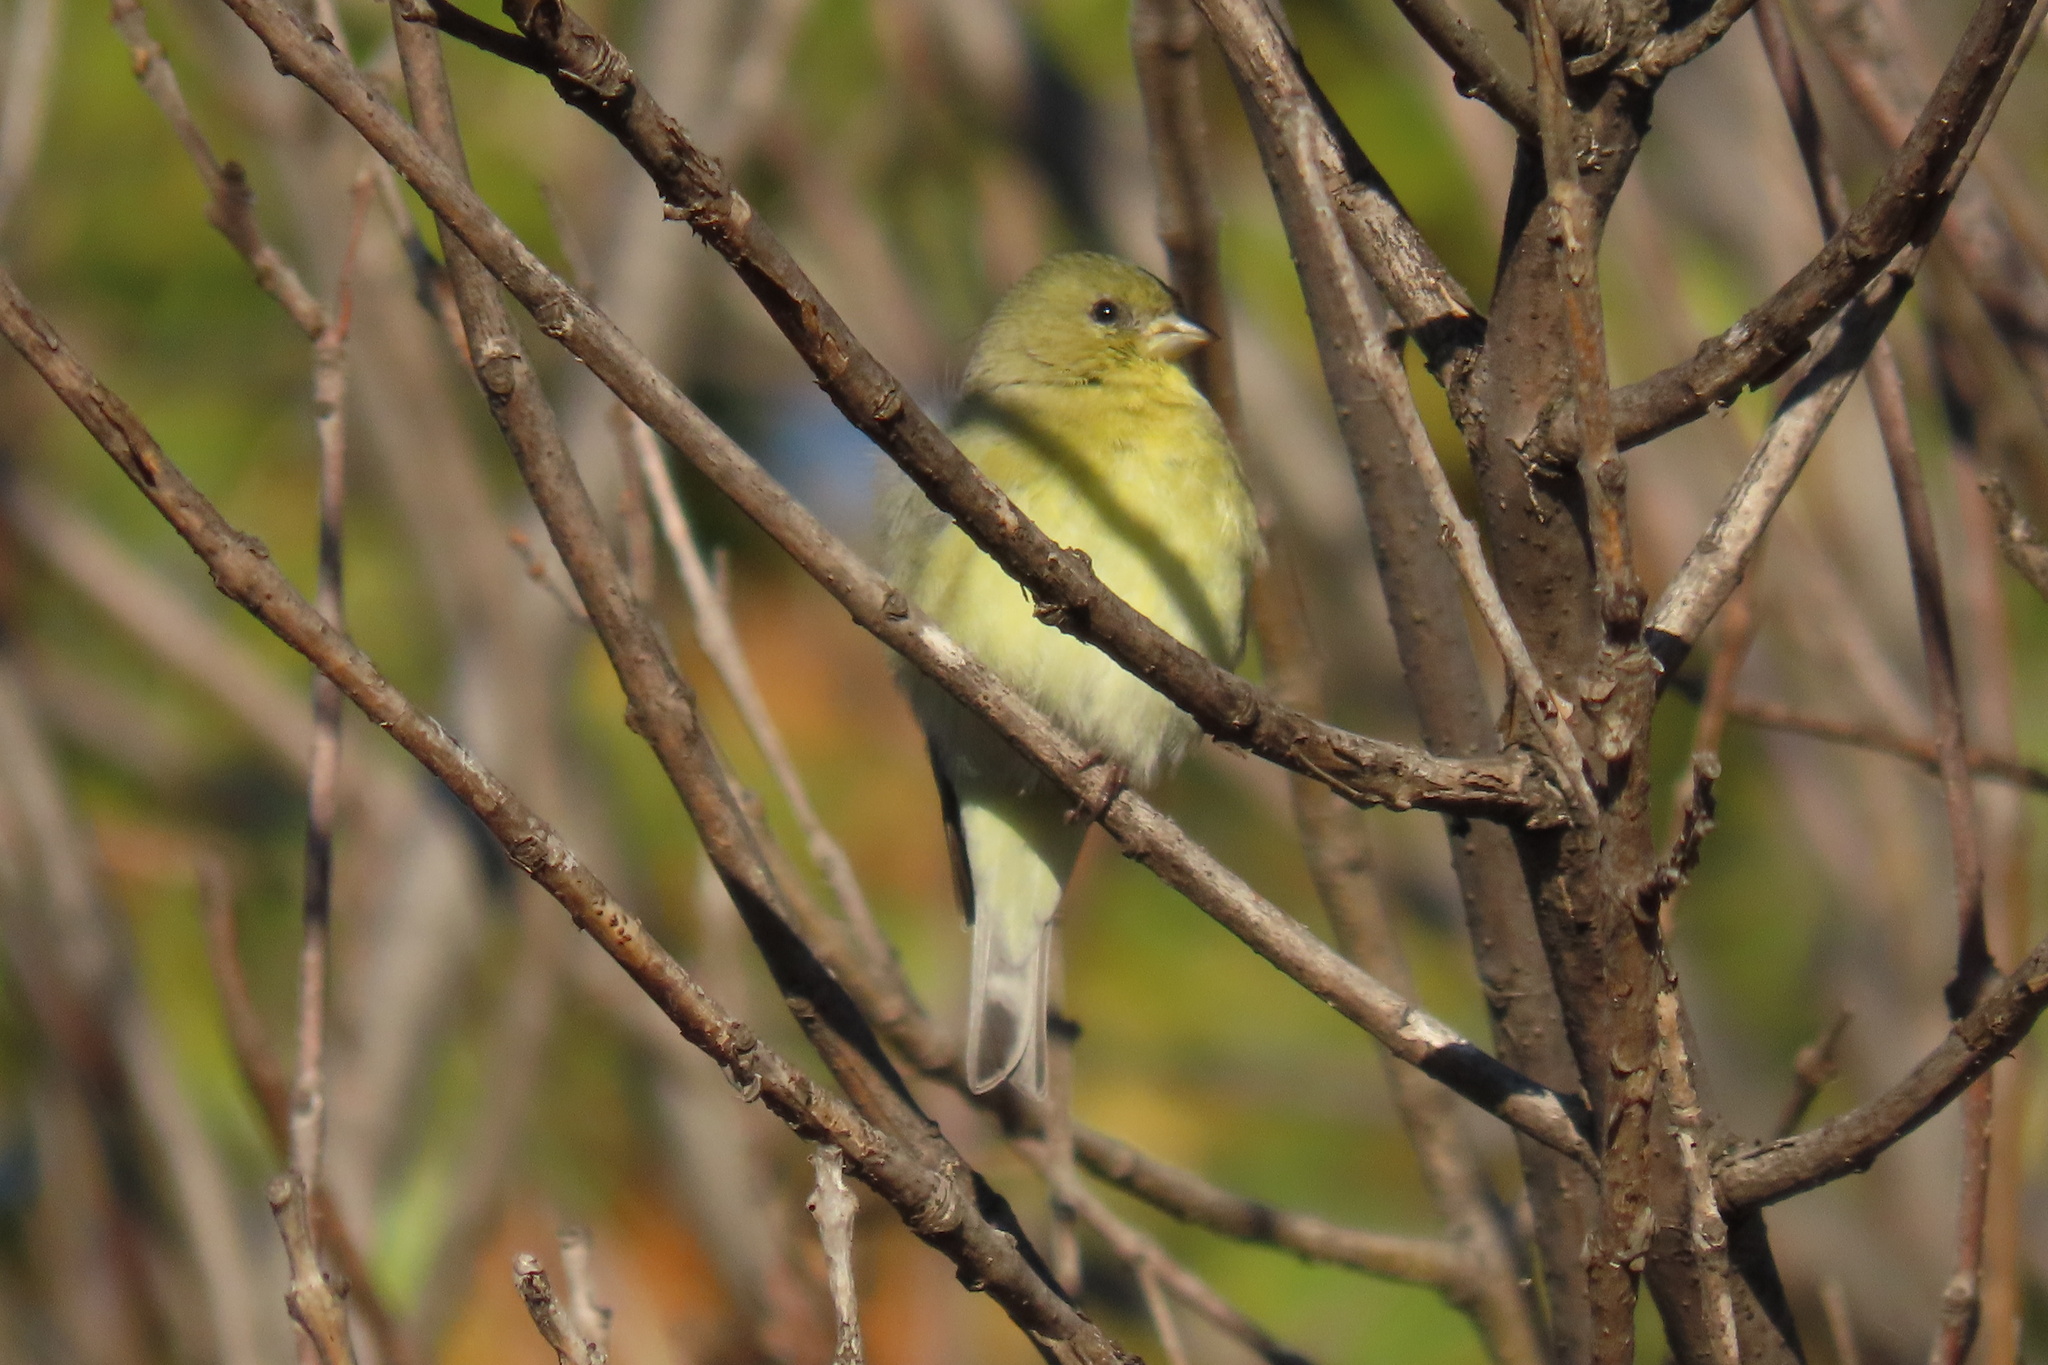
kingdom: Animalia
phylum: Chordata
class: Aves
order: Passeriformes
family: Fringillidae
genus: Spinus
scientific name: Spinus psaltria
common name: Lesser goldfinch
